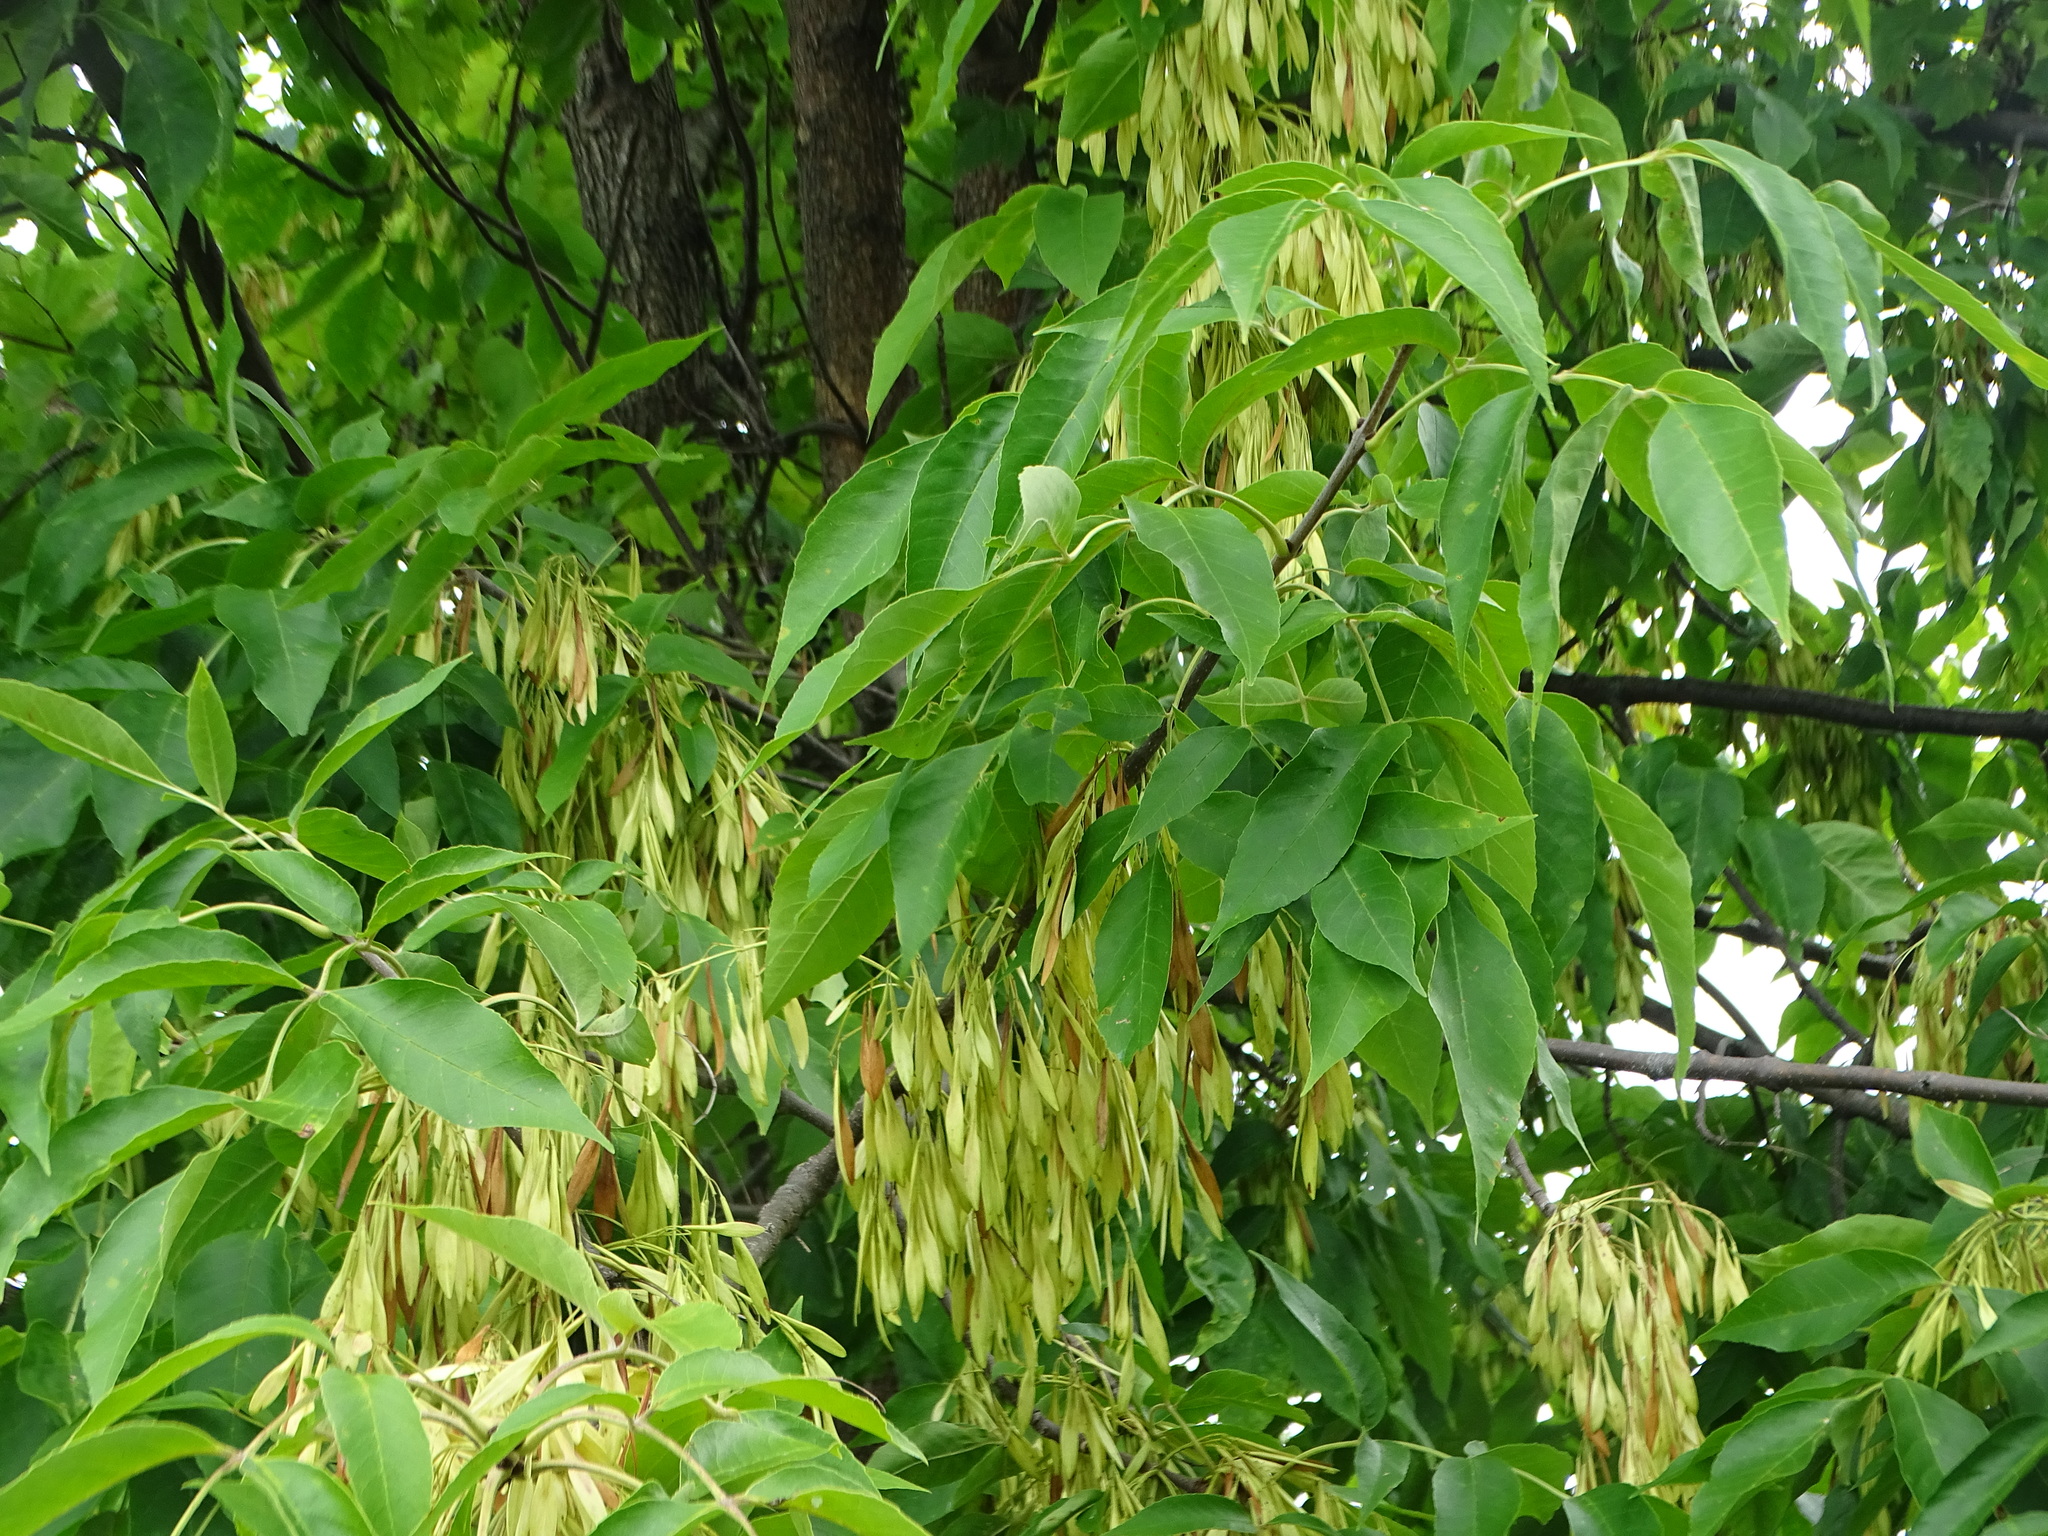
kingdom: Plantae
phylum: Tracheophyta
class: Magnoliopsida
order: Lamiales
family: Oleaceae
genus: Fraxinus
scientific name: Fraxinus pennsylvanica
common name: Green ash
